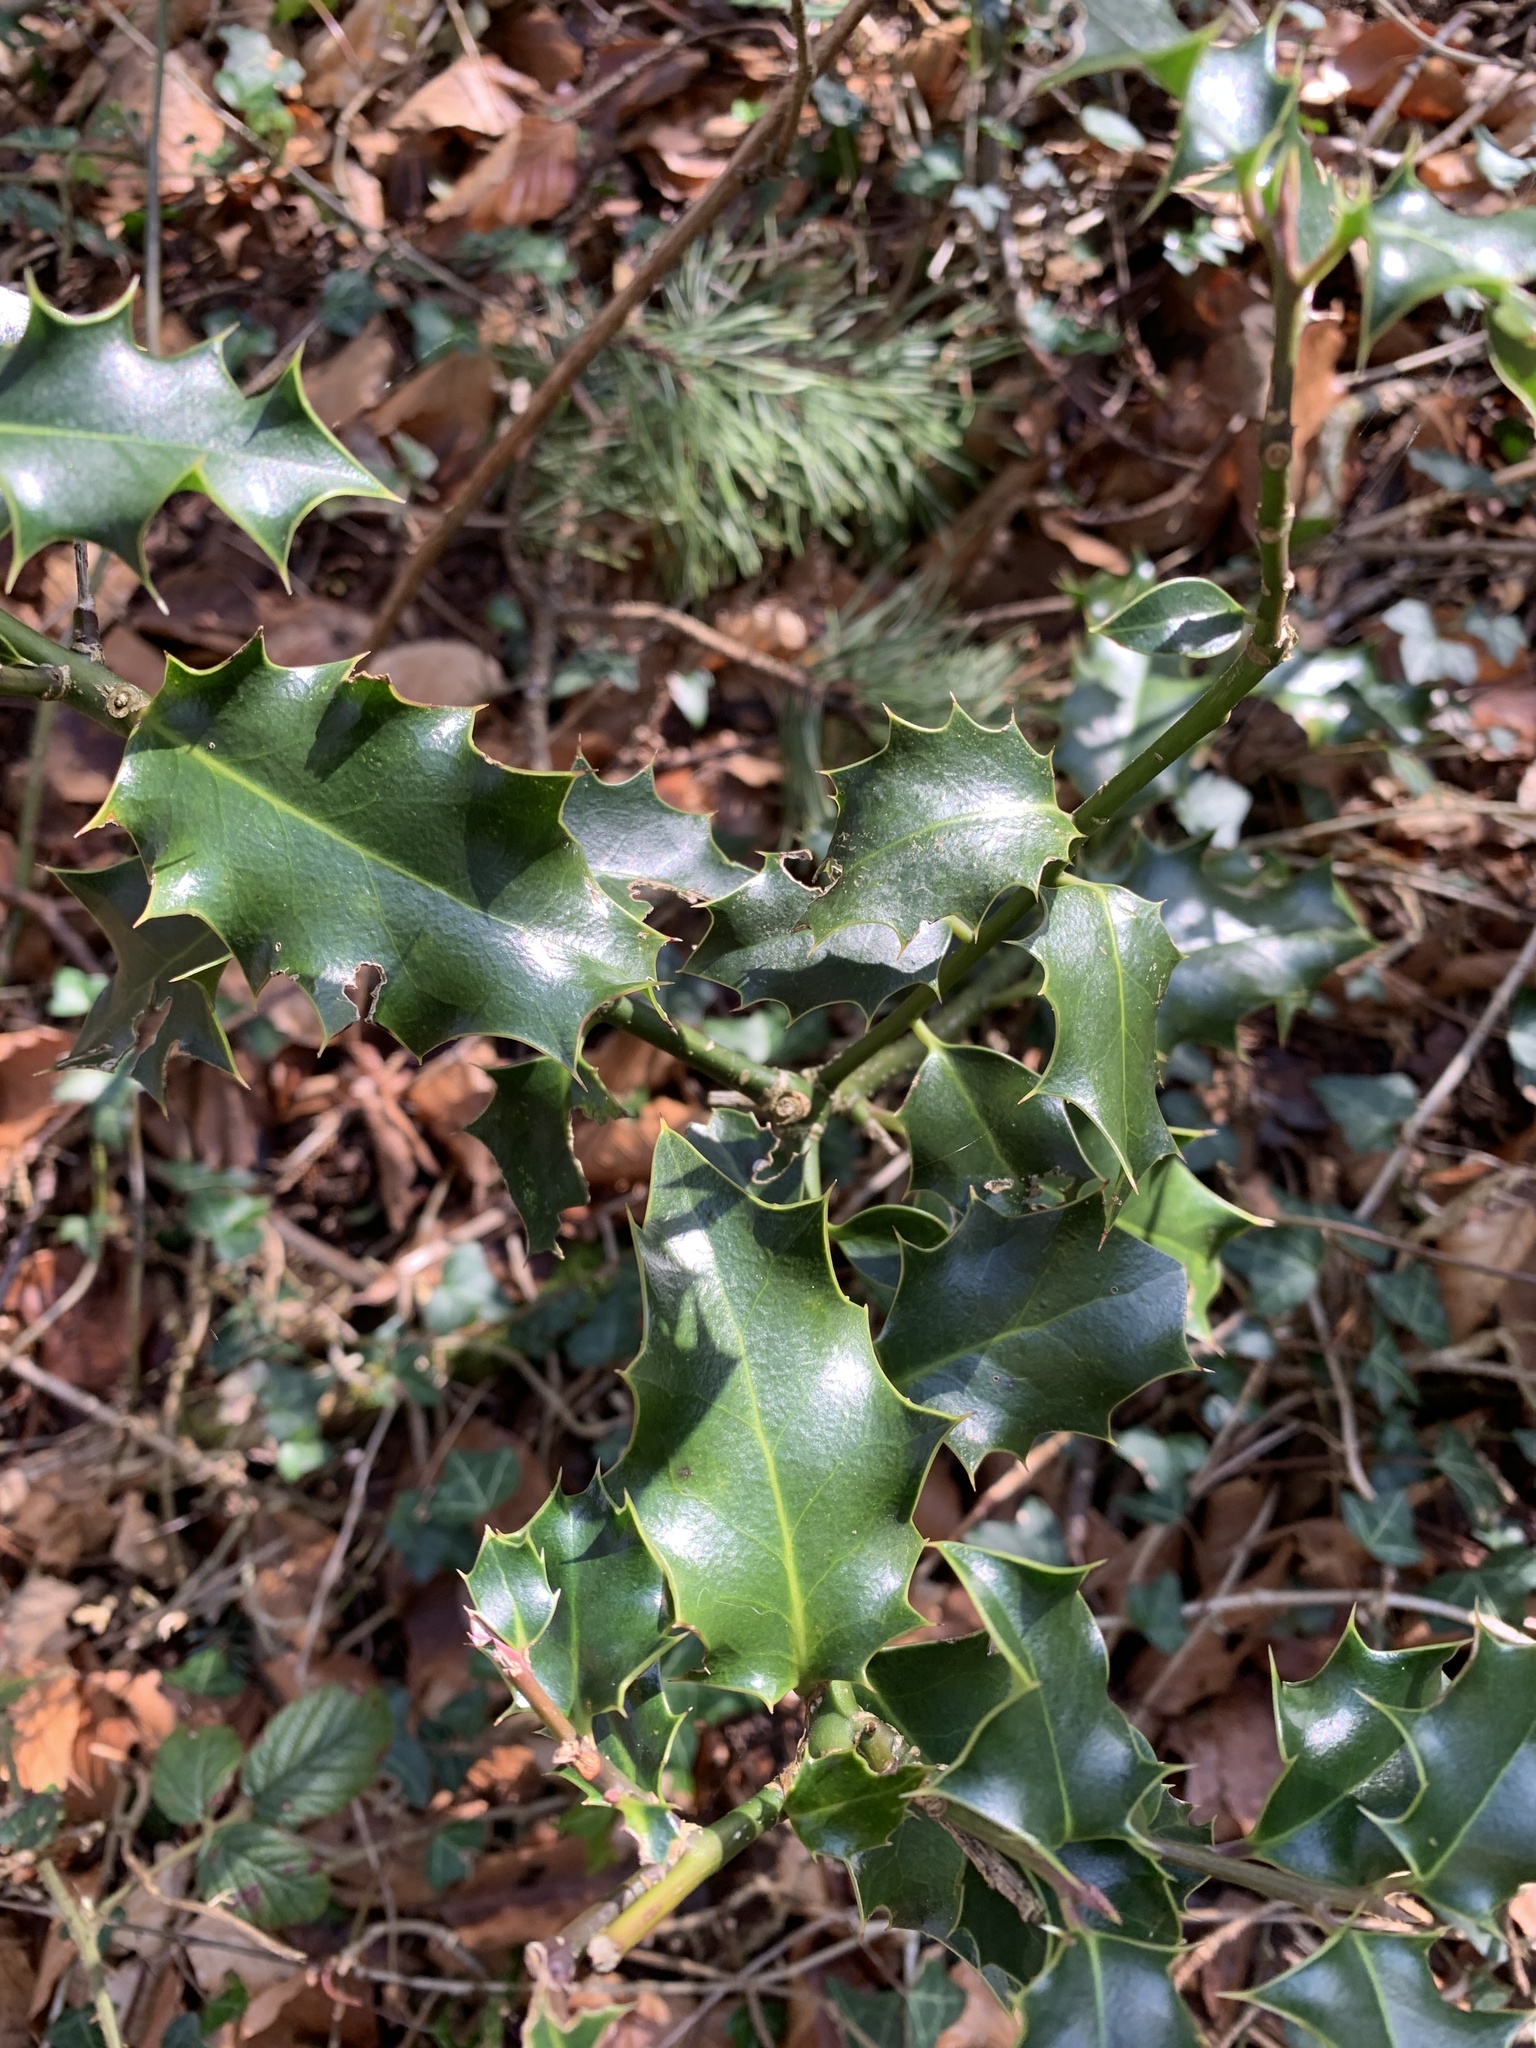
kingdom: Plantae
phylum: Tracheophyta
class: Magnoliopsida
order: Aquifoliales
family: Aquifoliaceae
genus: Ilex
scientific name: Ilex aquifolium
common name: English holly
